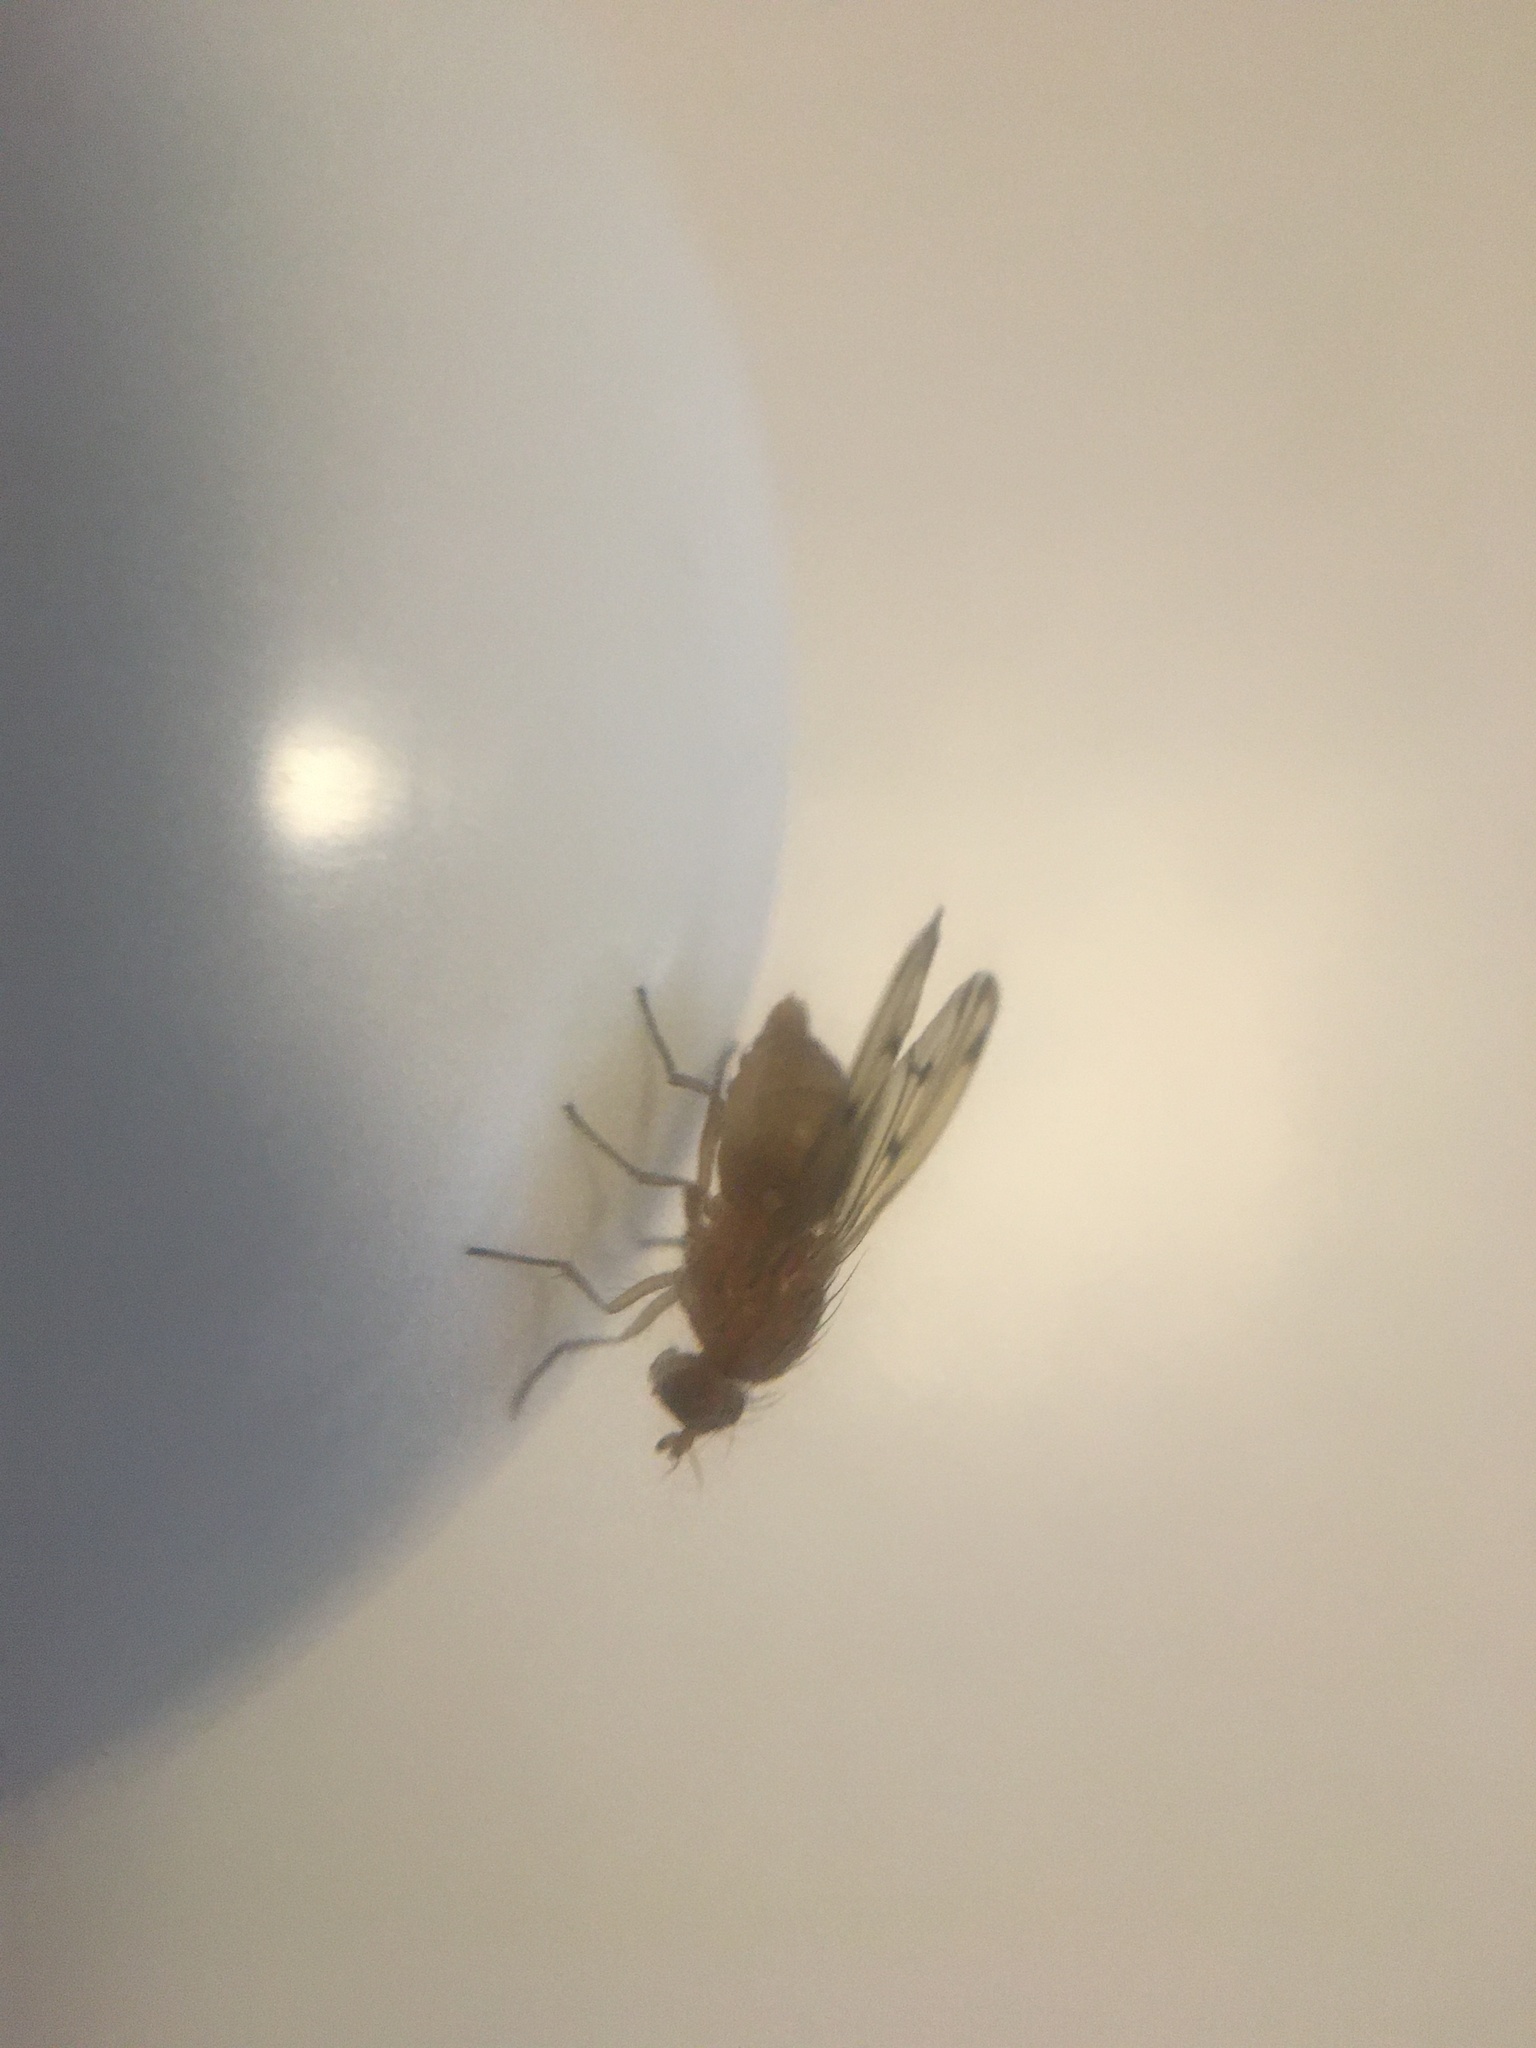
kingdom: Animalia
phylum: Arthropoda
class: Insecta
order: Diptera
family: Lauxaniidae
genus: Meiosimyza
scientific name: Meiosimyza decempunctata
